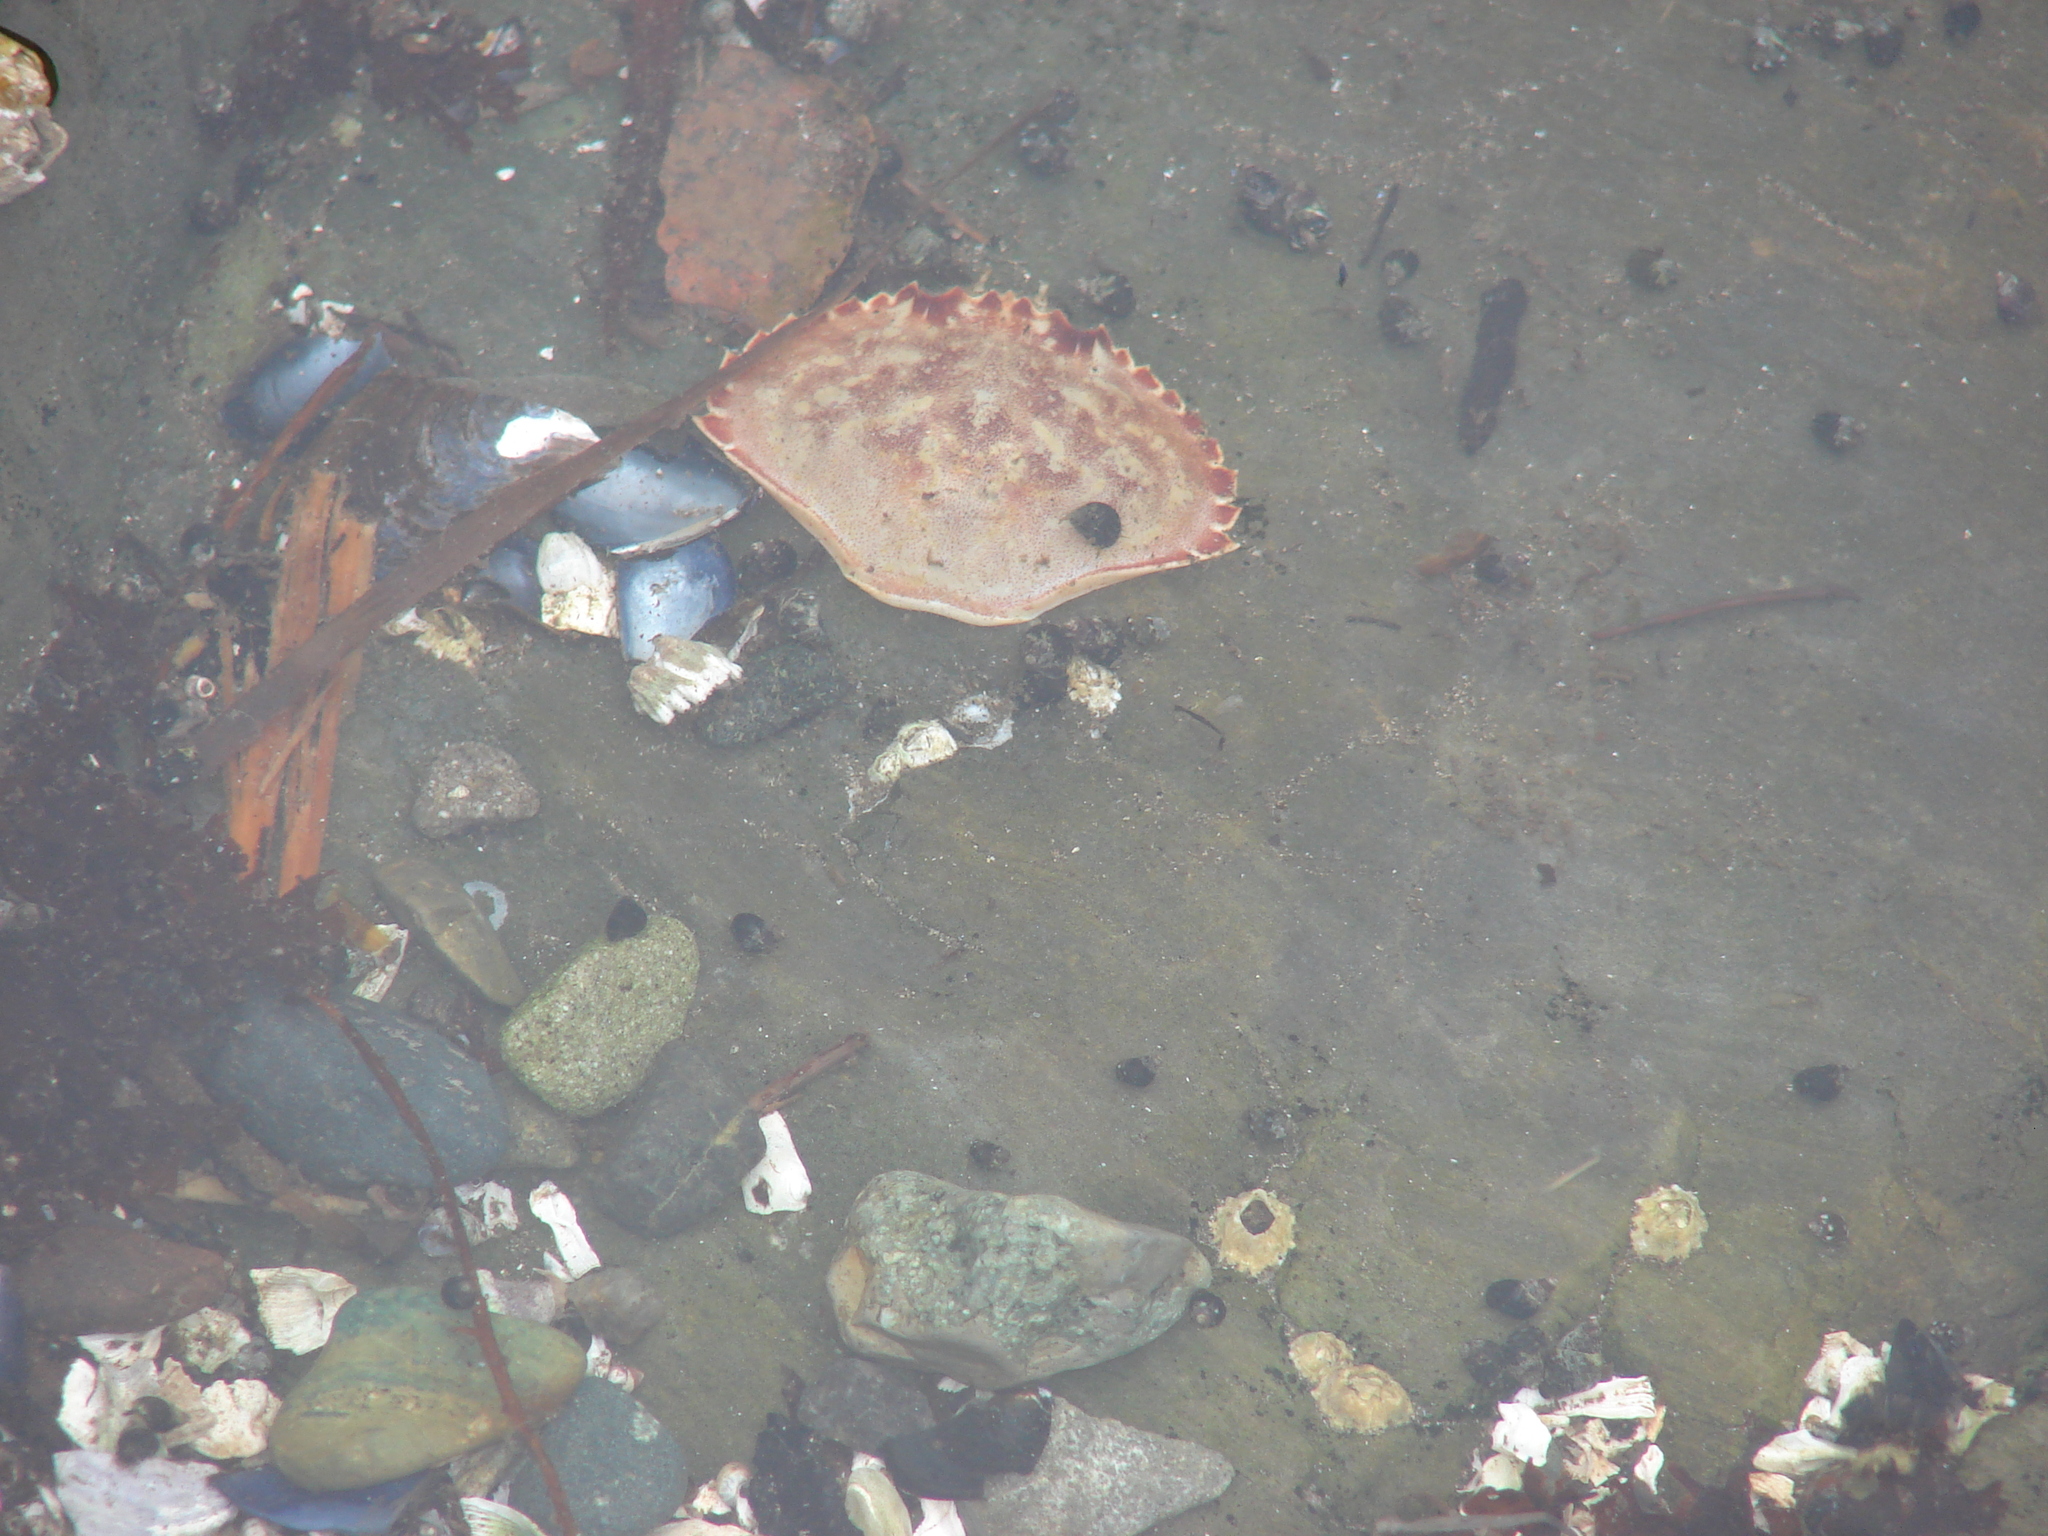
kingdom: Animalia
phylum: Arthropoda
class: Malacostraca
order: Decapoda
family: Cancridae
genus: Metacarcinus
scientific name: Metacarcinus gracilis
